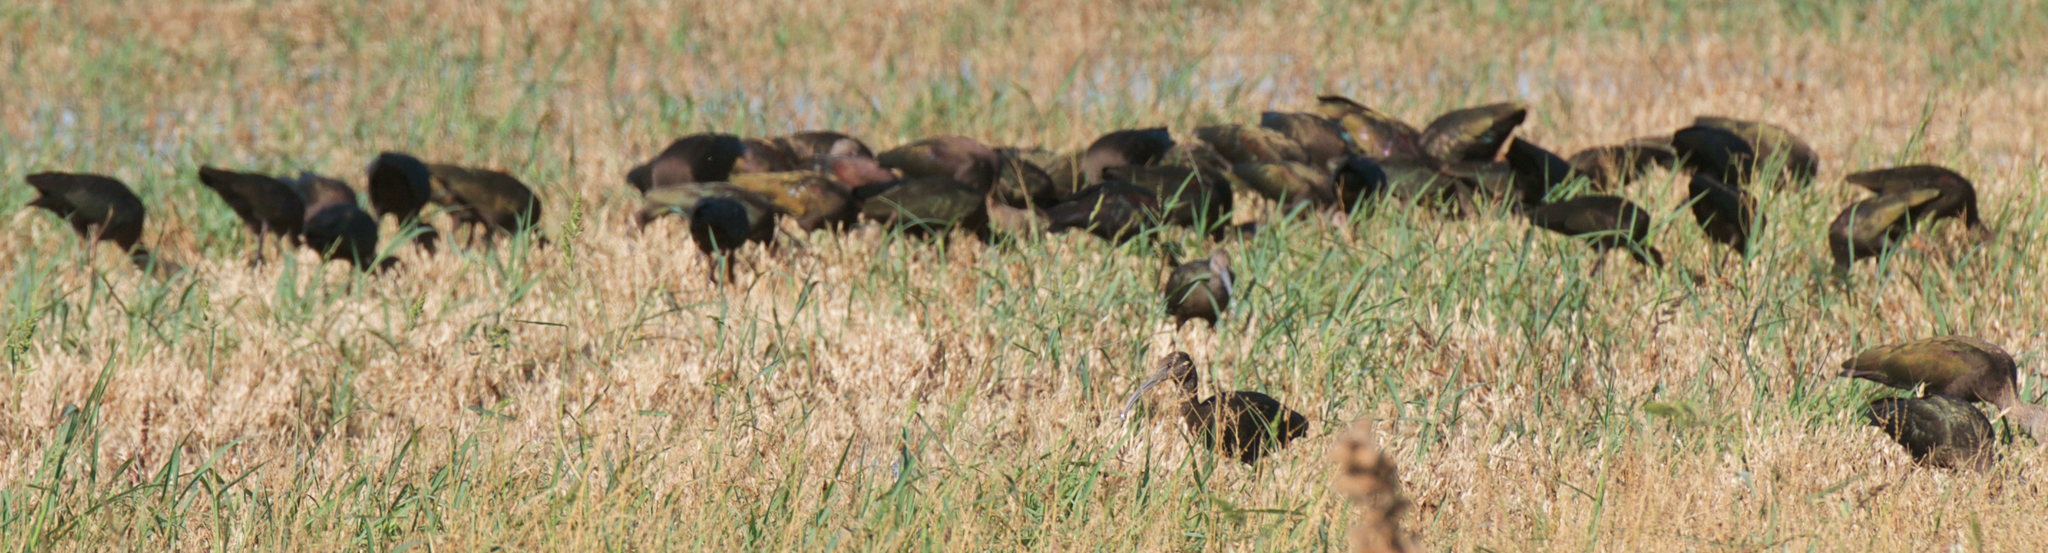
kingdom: Animalia
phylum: Chordata
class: Aves
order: Pelecaniformes
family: Threskiornithidae
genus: Plegadis
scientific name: Plegadis chihi
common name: White-faced ibis
